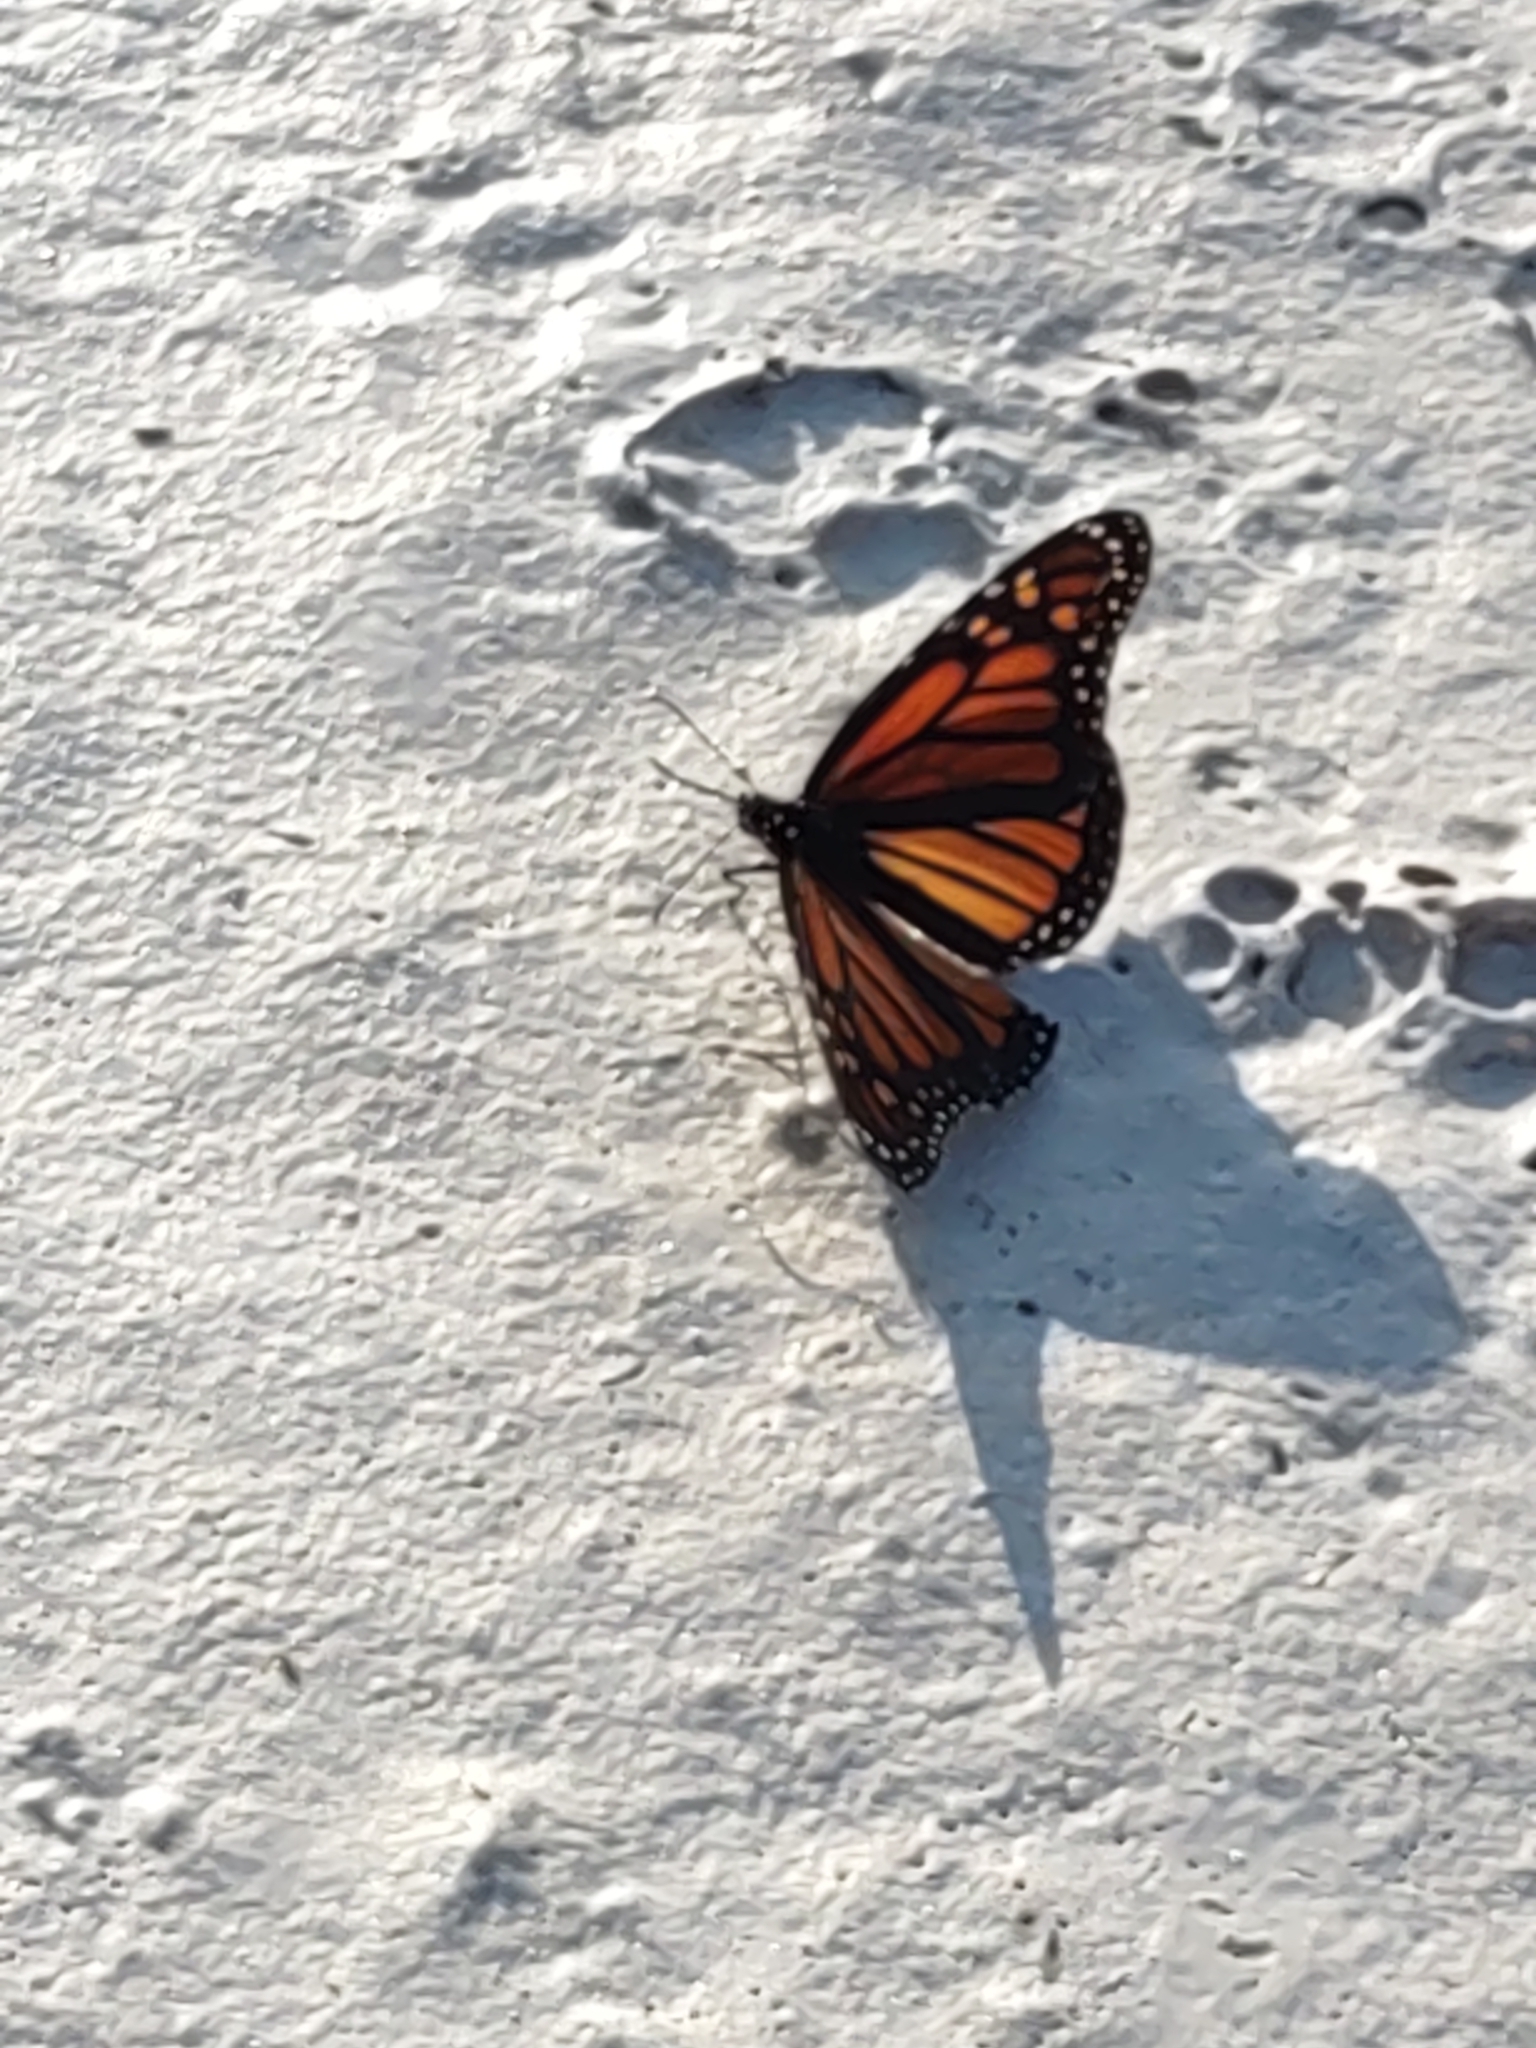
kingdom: Animalia
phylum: Arthropoda
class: Insecta
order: Lepidoptera
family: Nymphalidae
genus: Danaus
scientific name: Danaus plexippus
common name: Monarch
